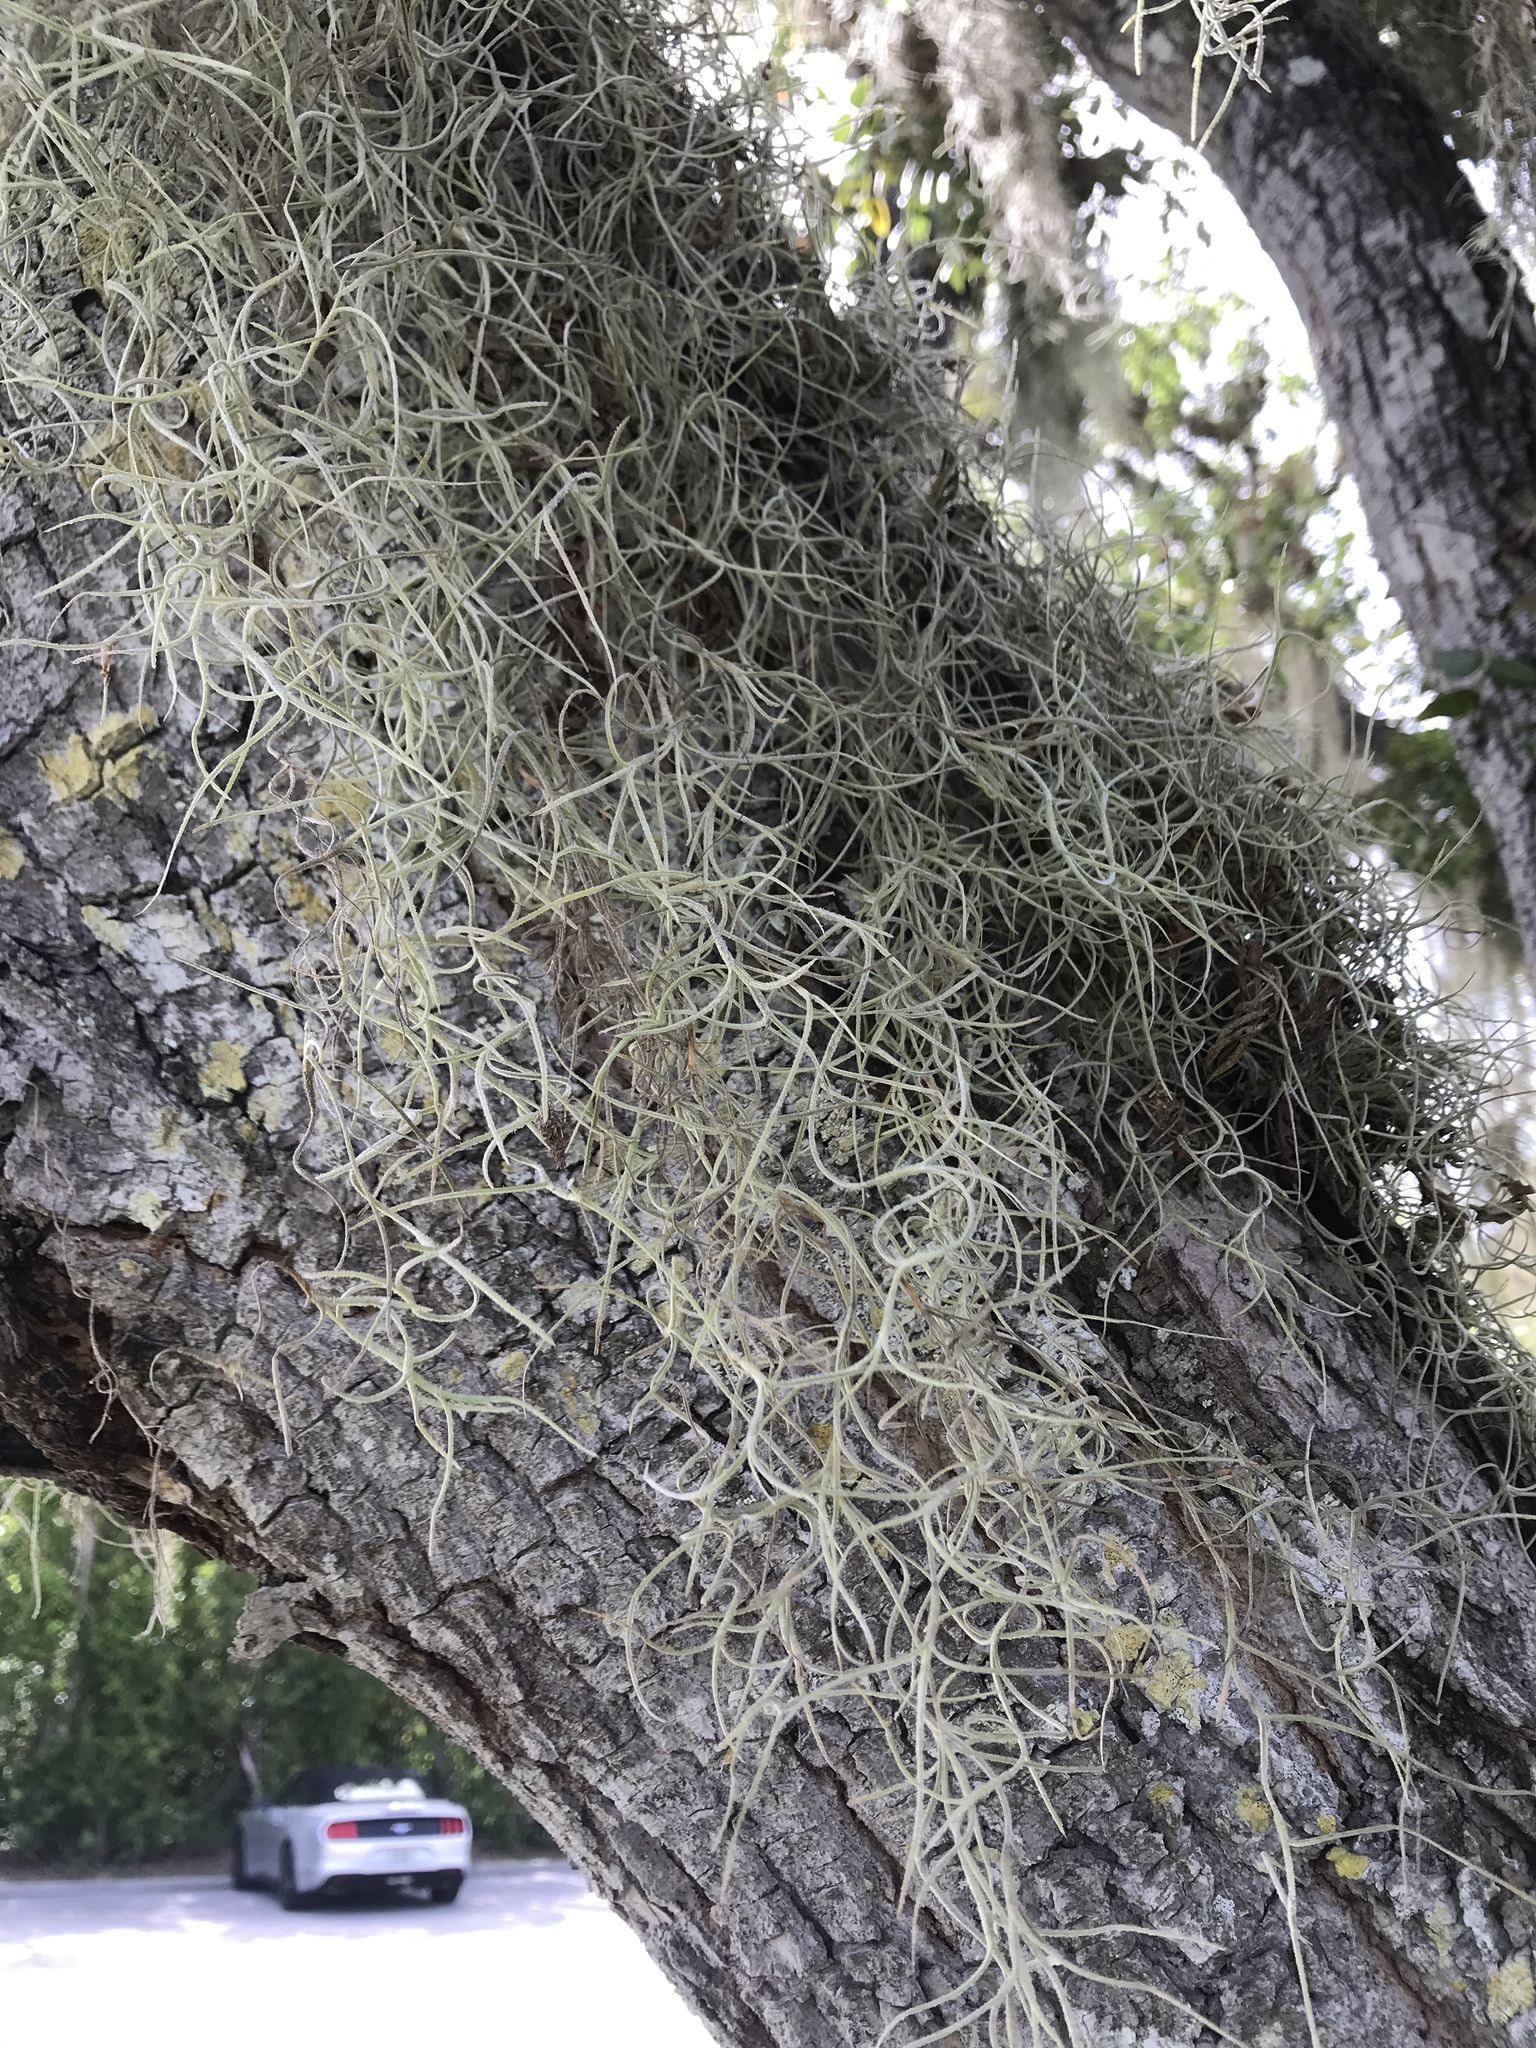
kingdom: Plantae
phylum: Tracheophyta
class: Liliopsida
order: Poales
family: Bromeliaceae
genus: Tillandsia
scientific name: Tillandsia usneoides
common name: Spanish moss
